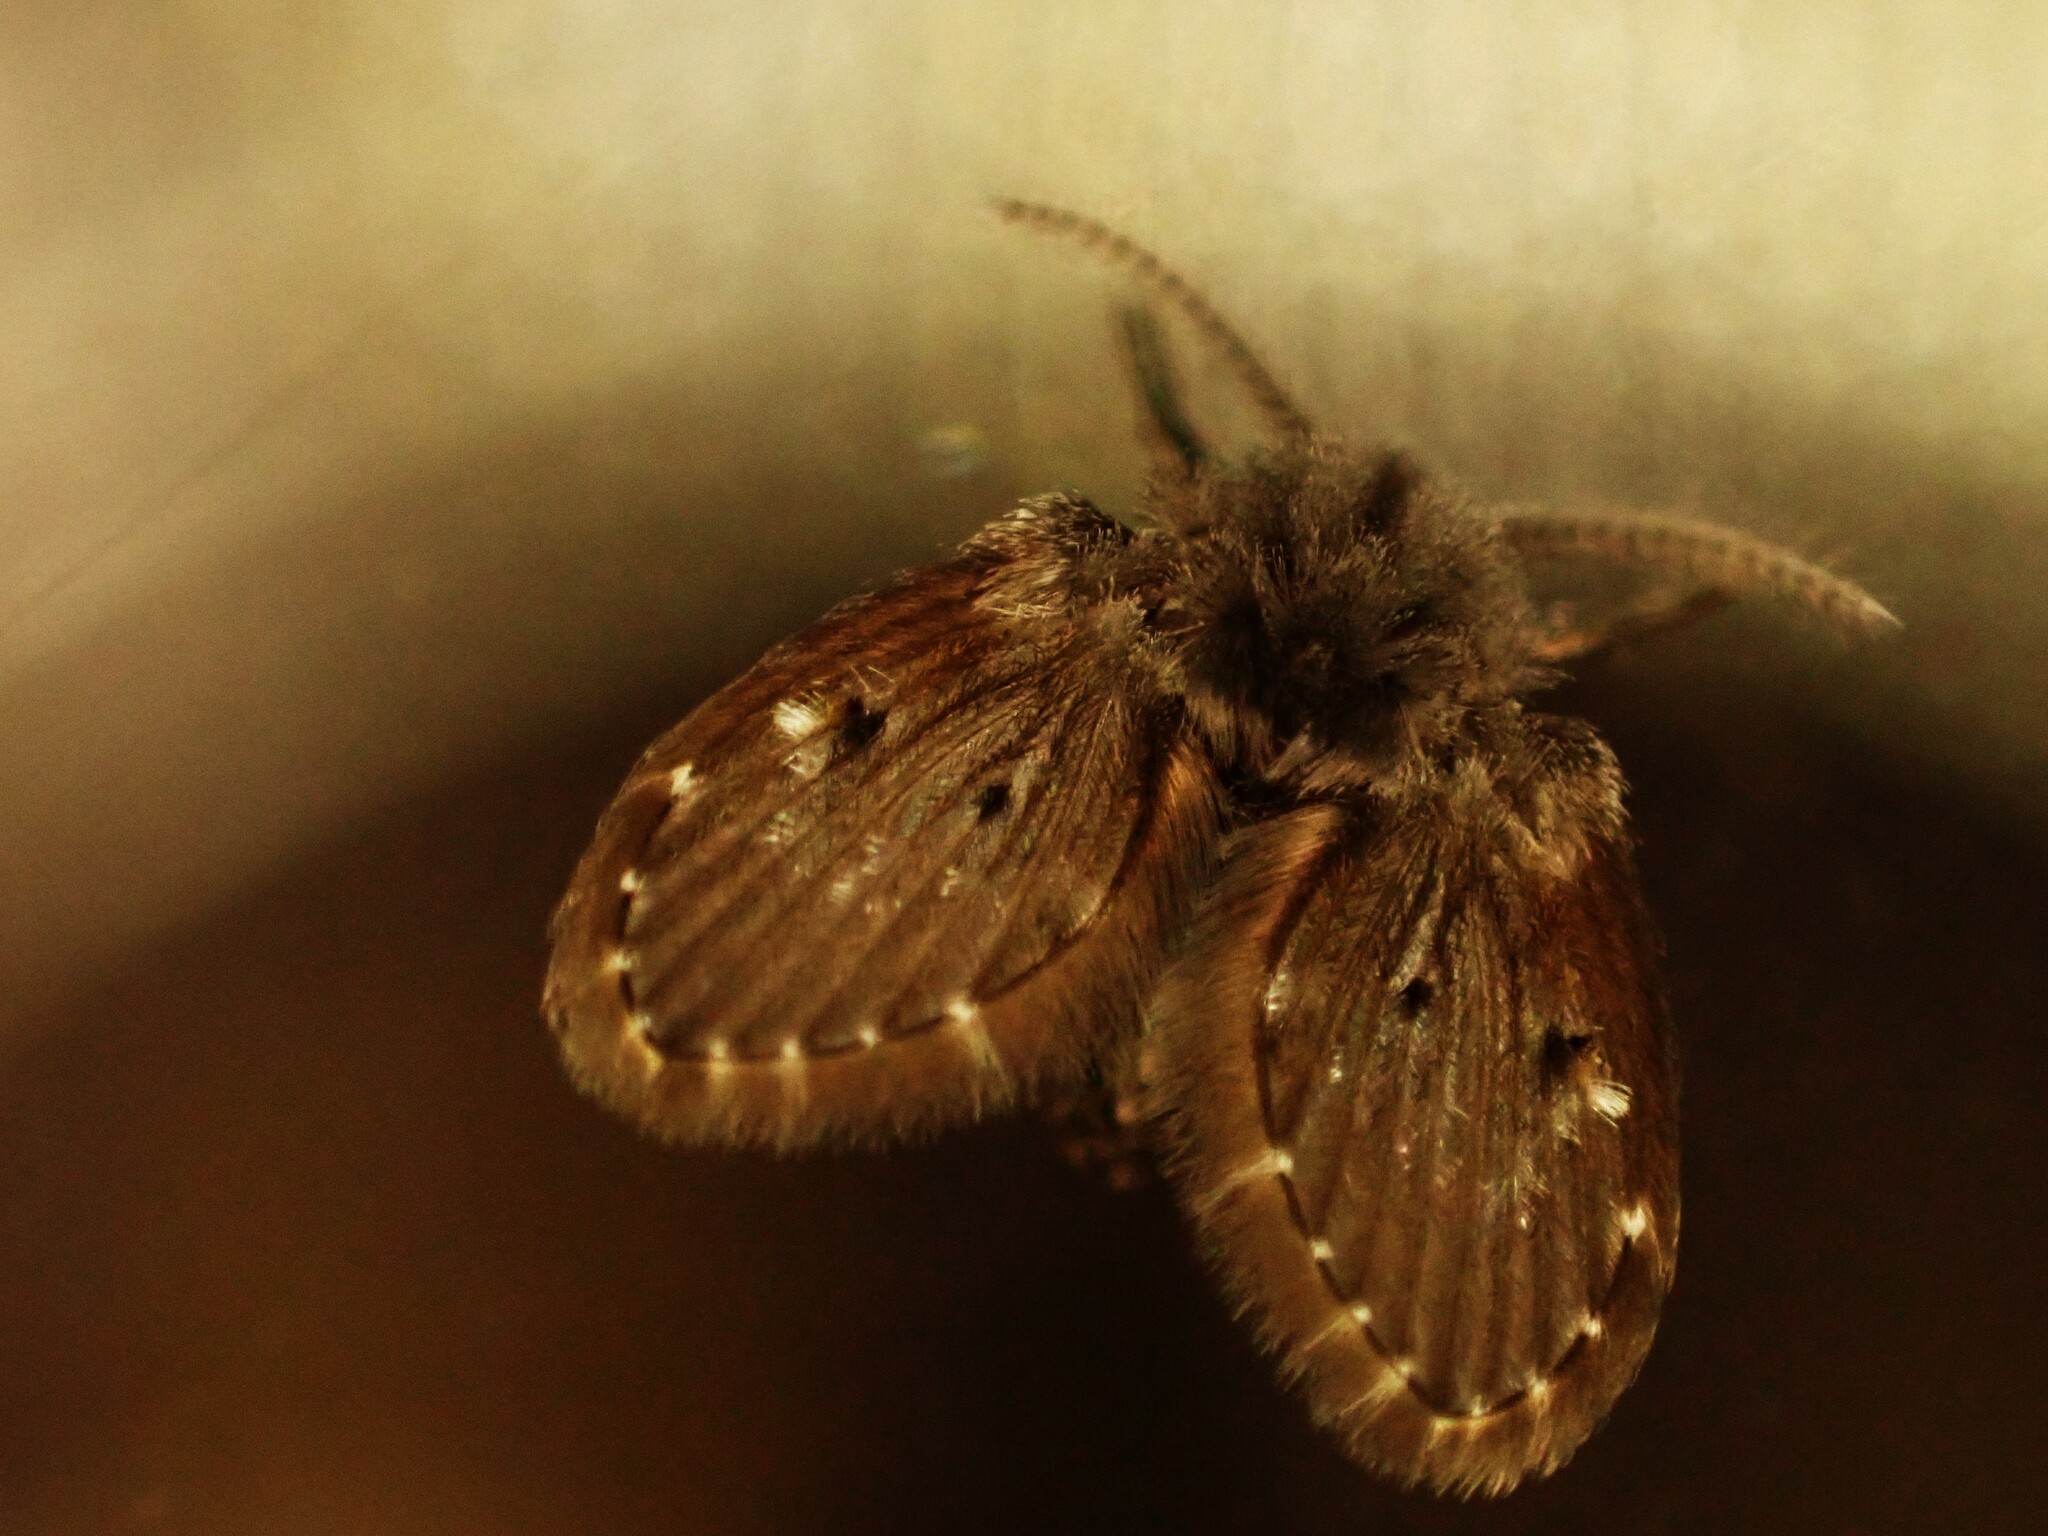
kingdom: Animalia
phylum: Arthropoda
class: Insecta
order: Diptera
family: Psychodidae
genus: Clogmia
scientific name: Clogmia albipunctatus
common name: White-spotted moth fly
